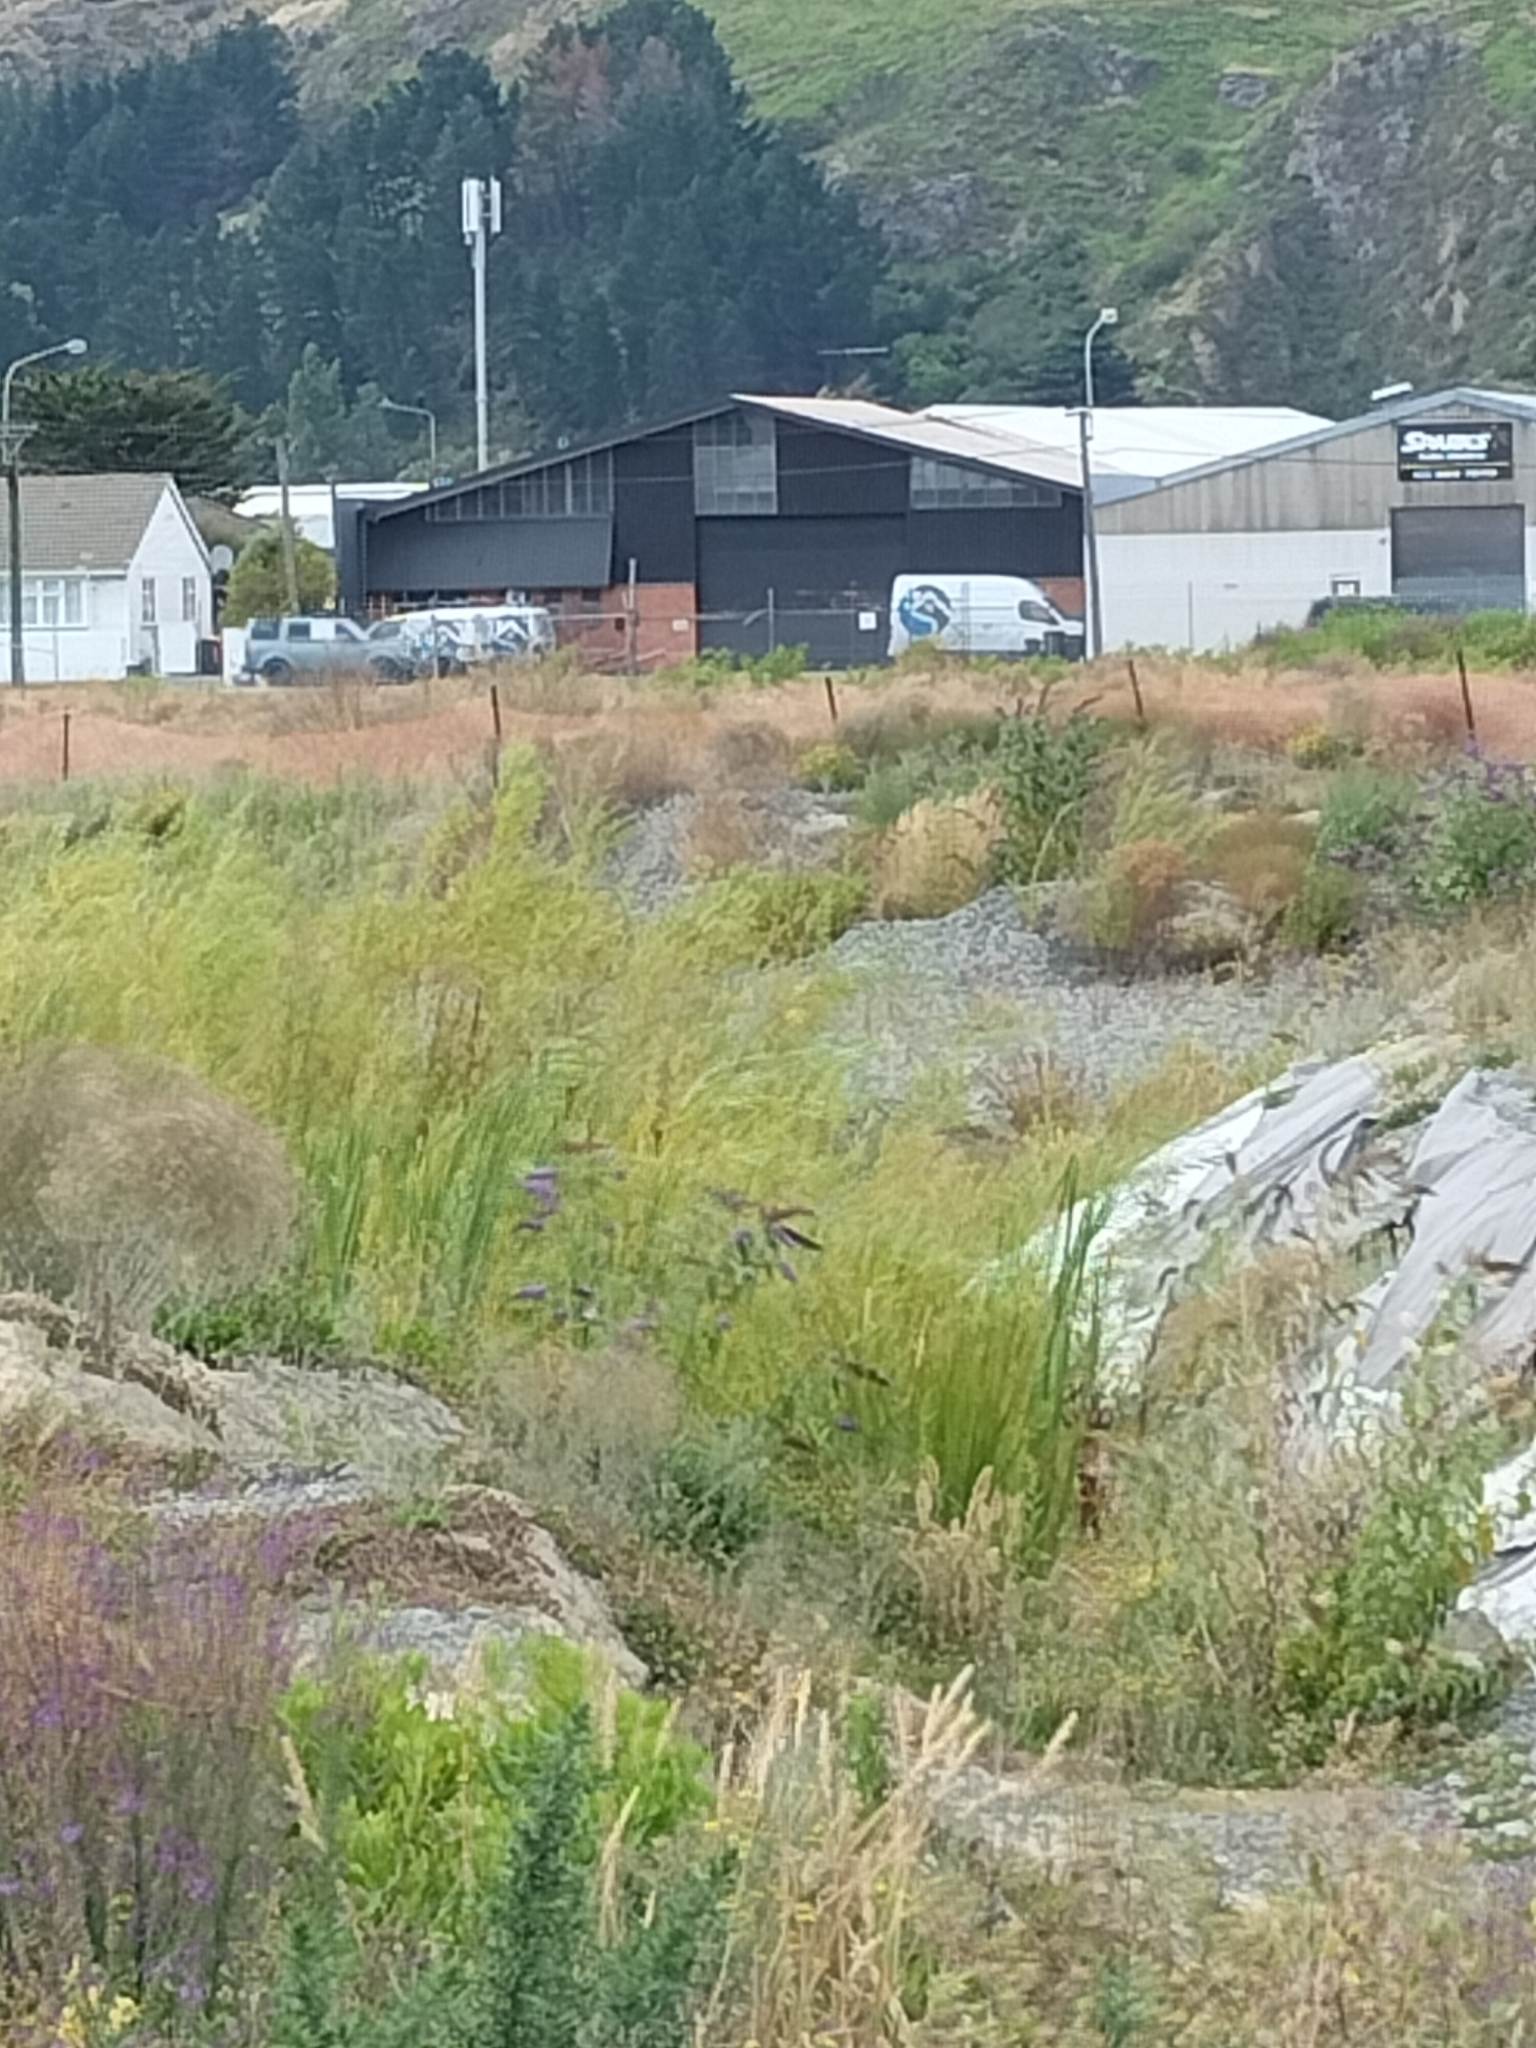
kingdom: Plantae
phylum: Tracheophyta
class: Liliopsida
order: Poales
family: Typhaceae
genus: Typha
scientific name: Typha orientalis
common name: Bullrush
